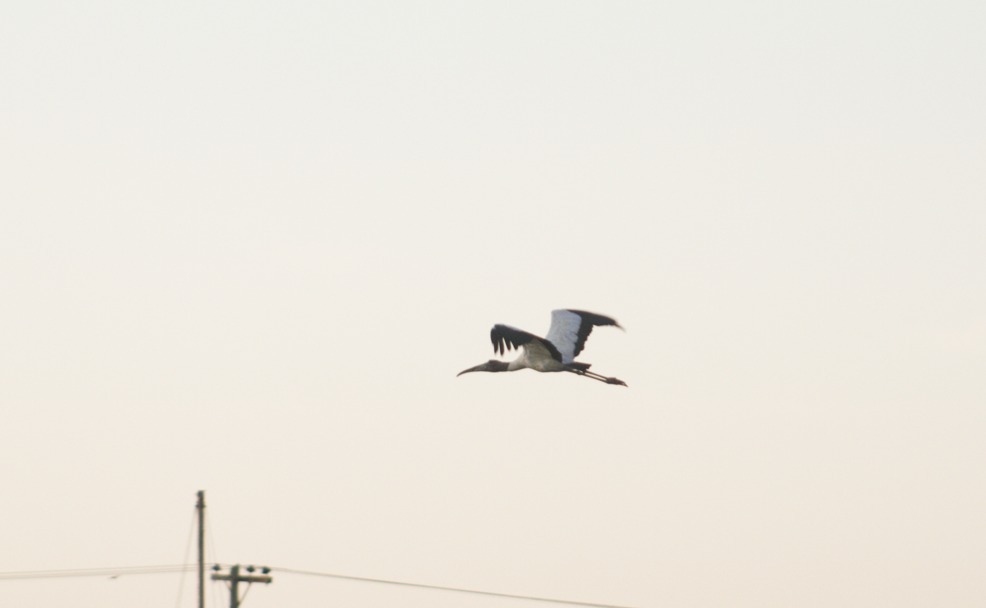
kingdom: Animalia
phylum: Chordata
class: Aves
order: Ciconiiformes
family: Ciconiidae
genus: Mycteria
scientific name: Mycteria americana
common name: Wood stork
